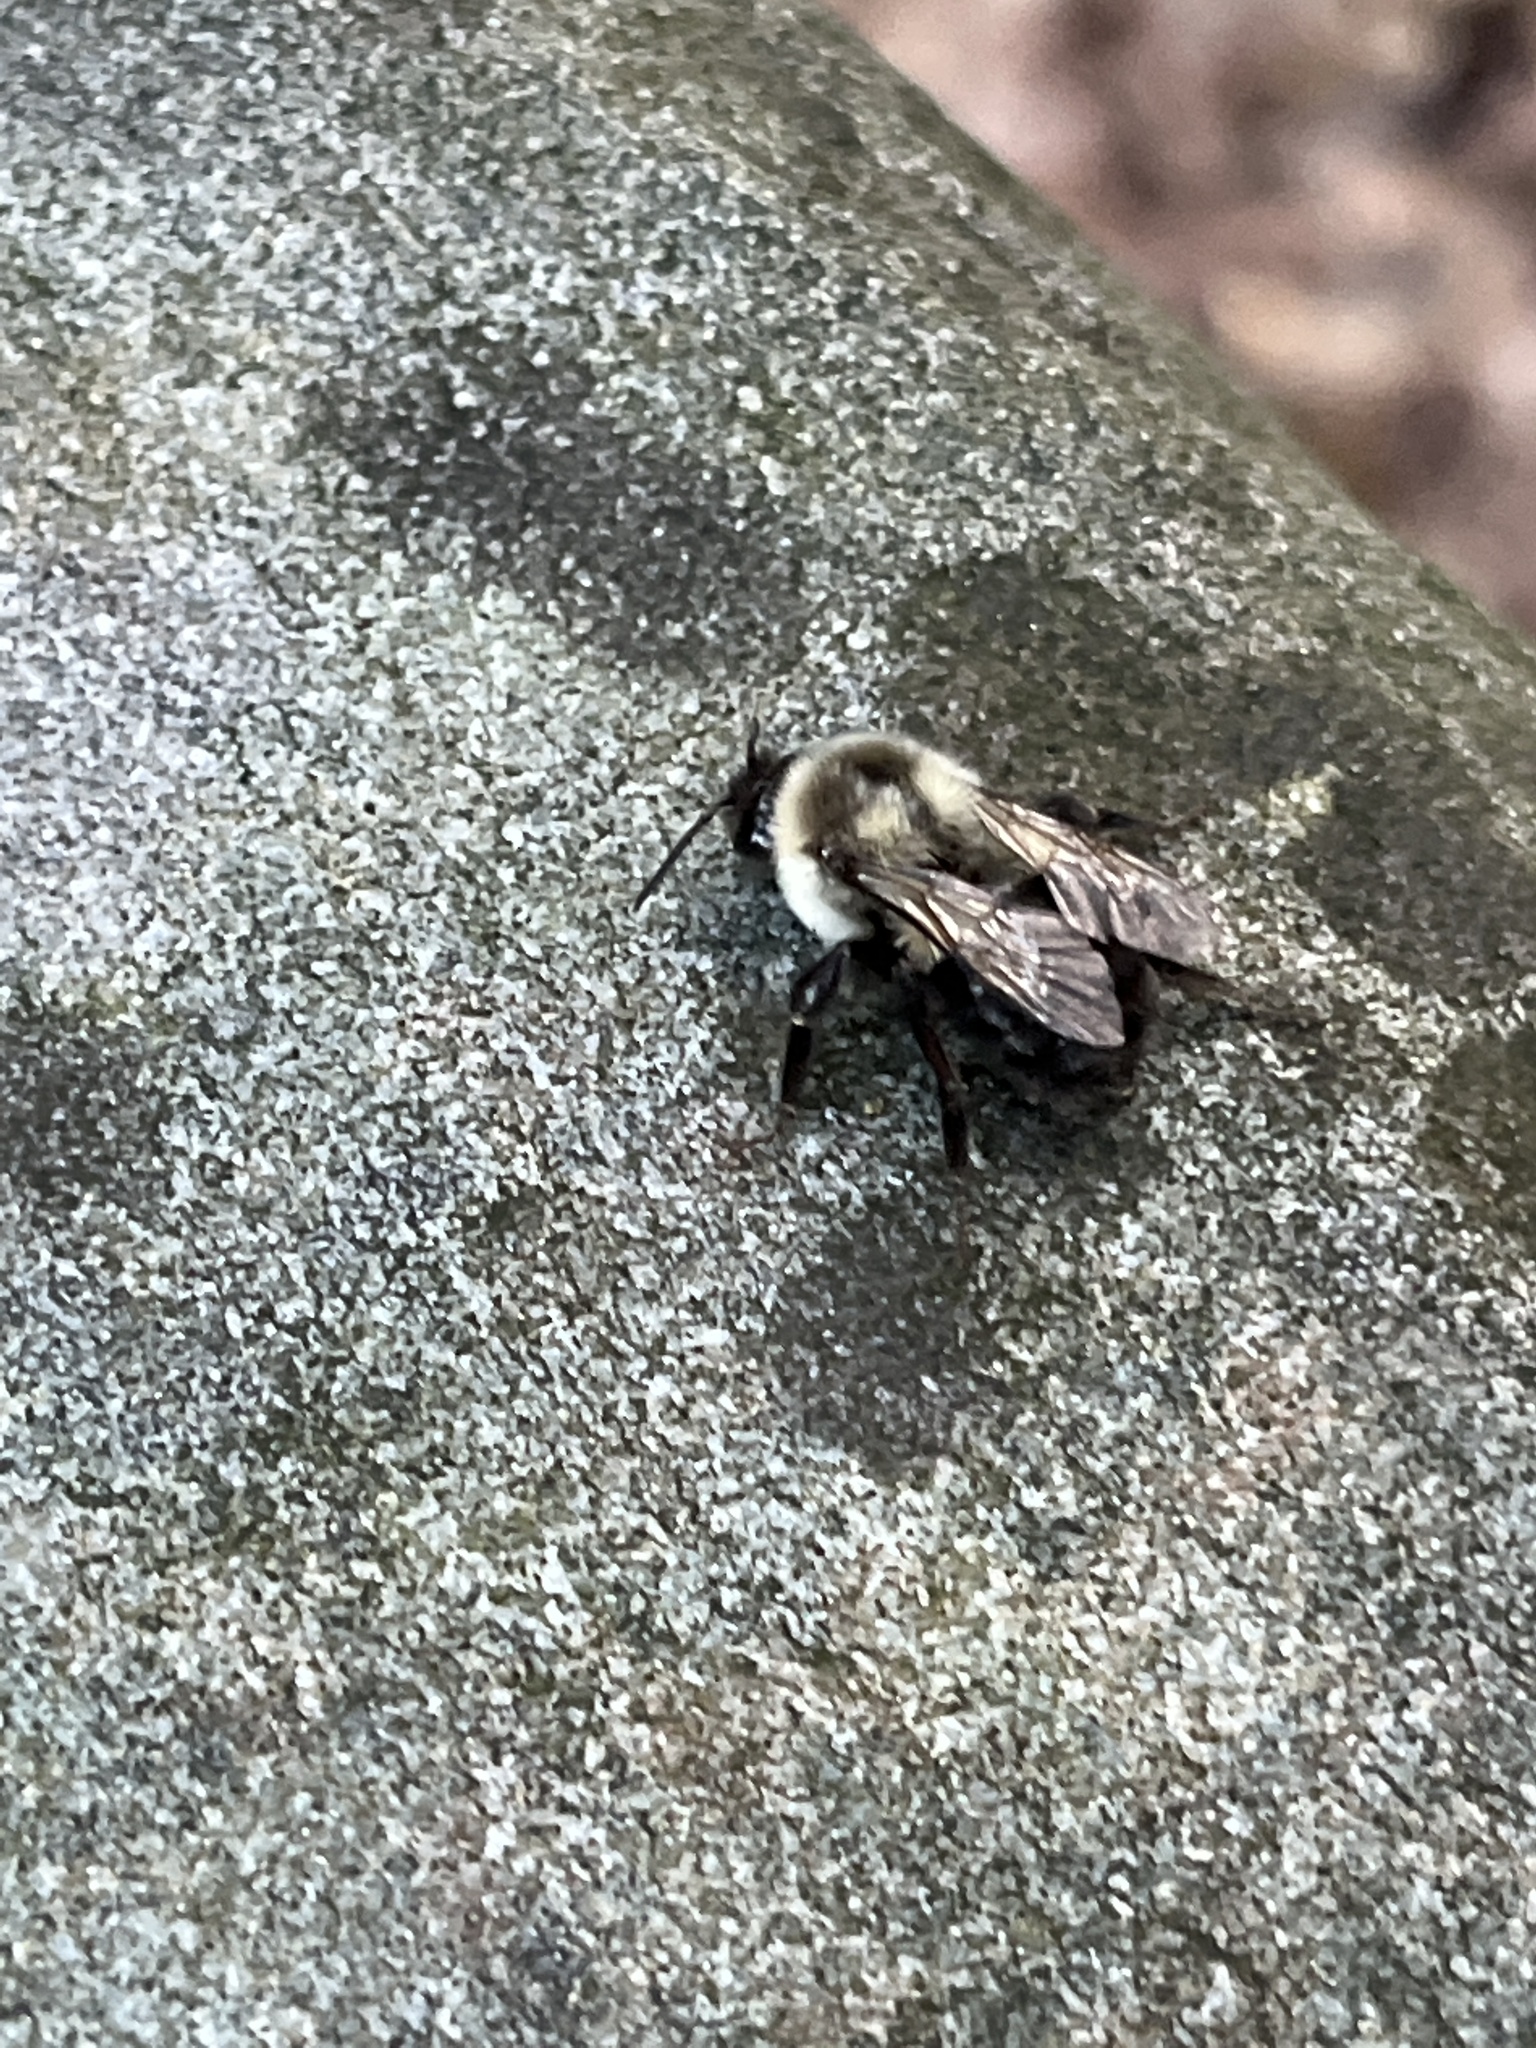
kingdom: Animalia
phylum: Arthropoda
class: Insecta
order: Hymenoptera
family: Apidae
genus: Bombus
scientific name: Bombus impatiens
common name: Common eastern bumble bee
